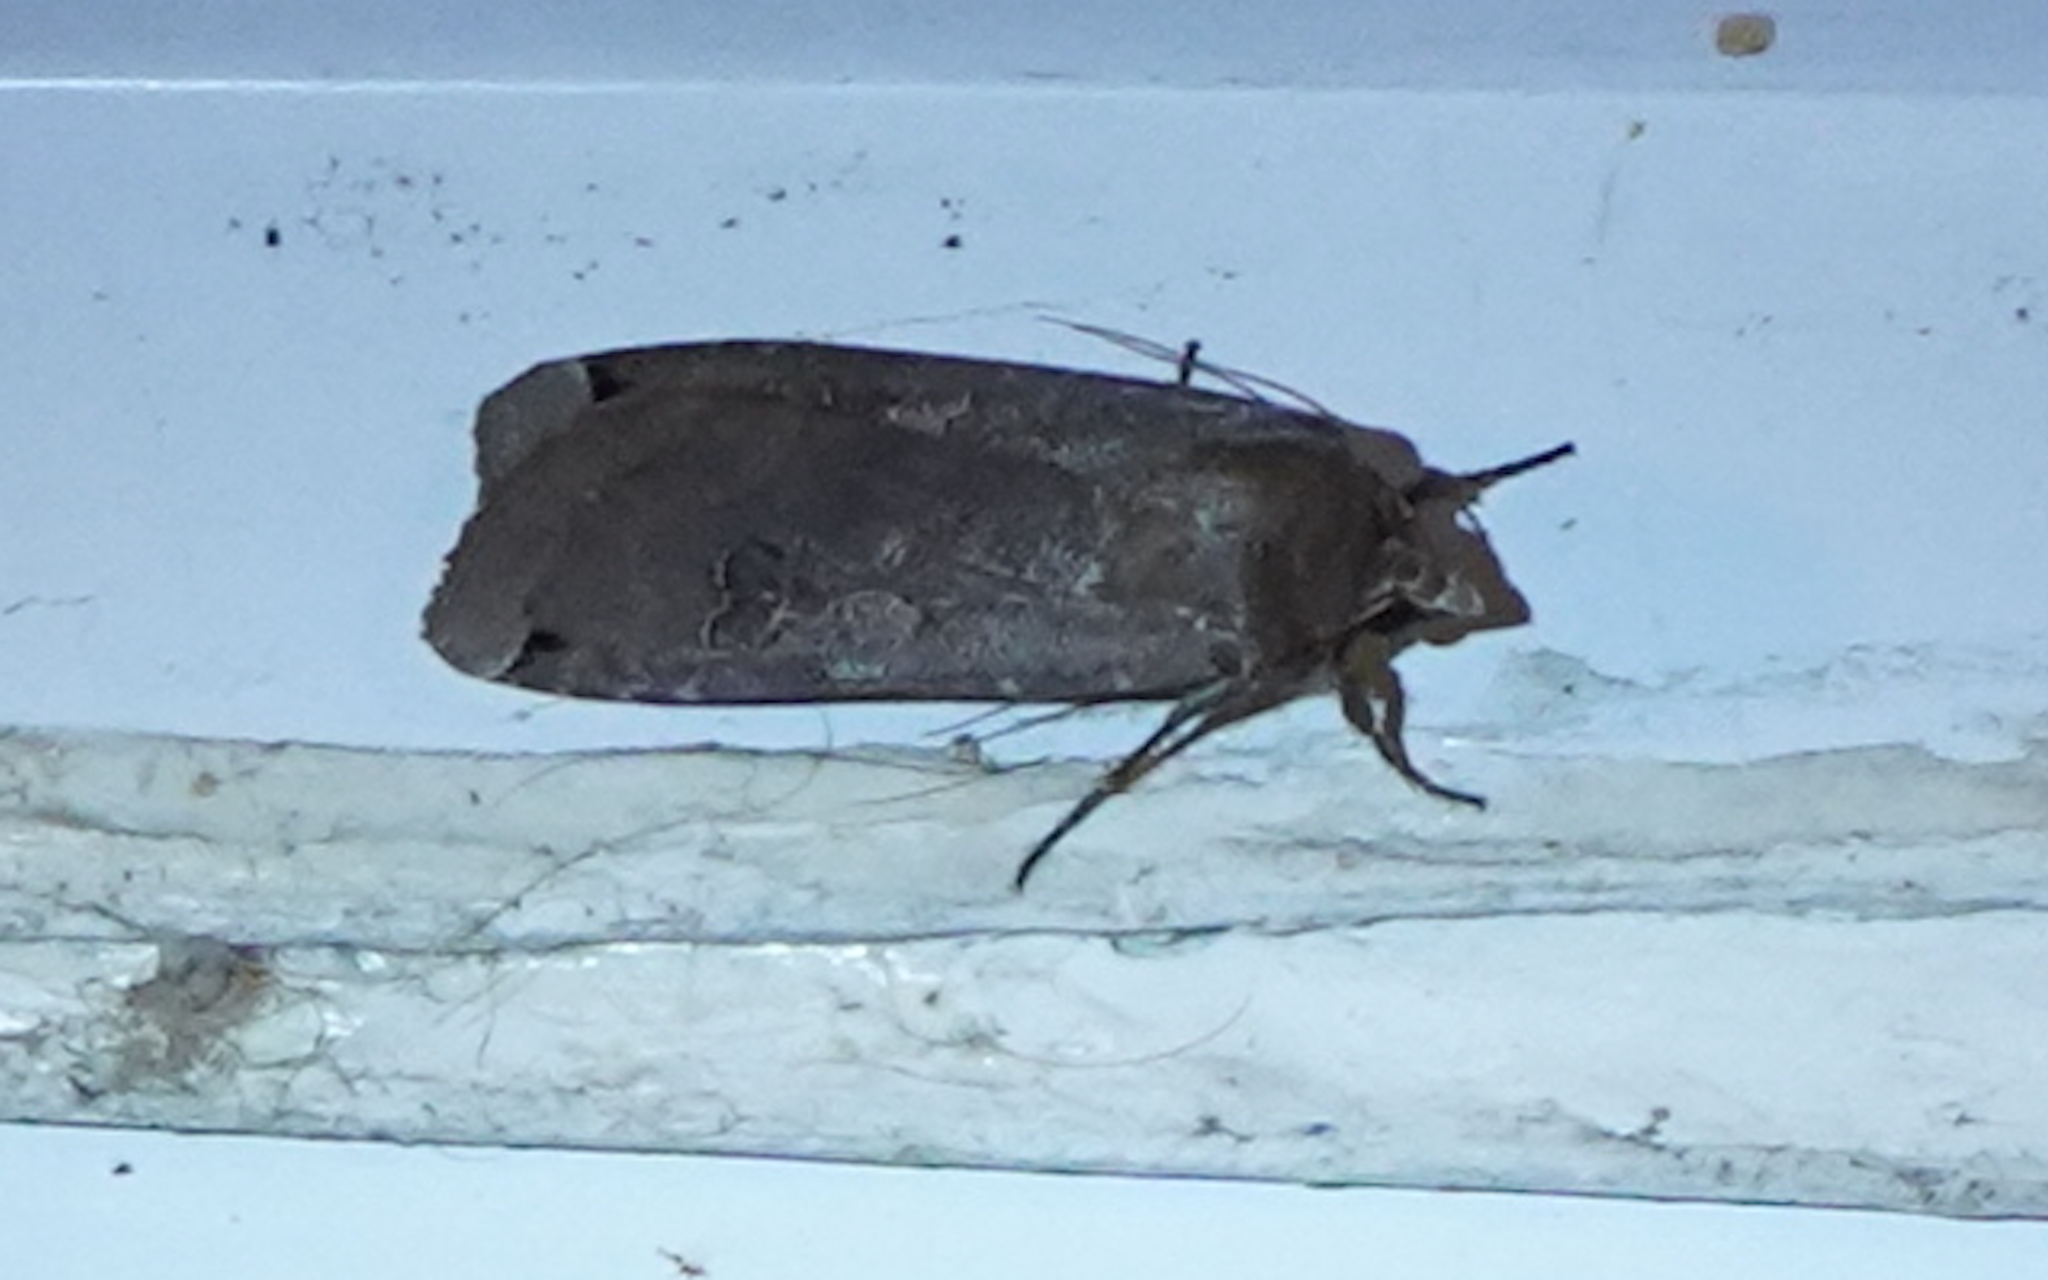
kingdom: Animalia
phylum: Arthropoda
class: Insecta
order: Lepidoptera
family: Noctuidae
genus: Noctua
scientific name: Noctua pronuba
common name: Large yellow underwing
